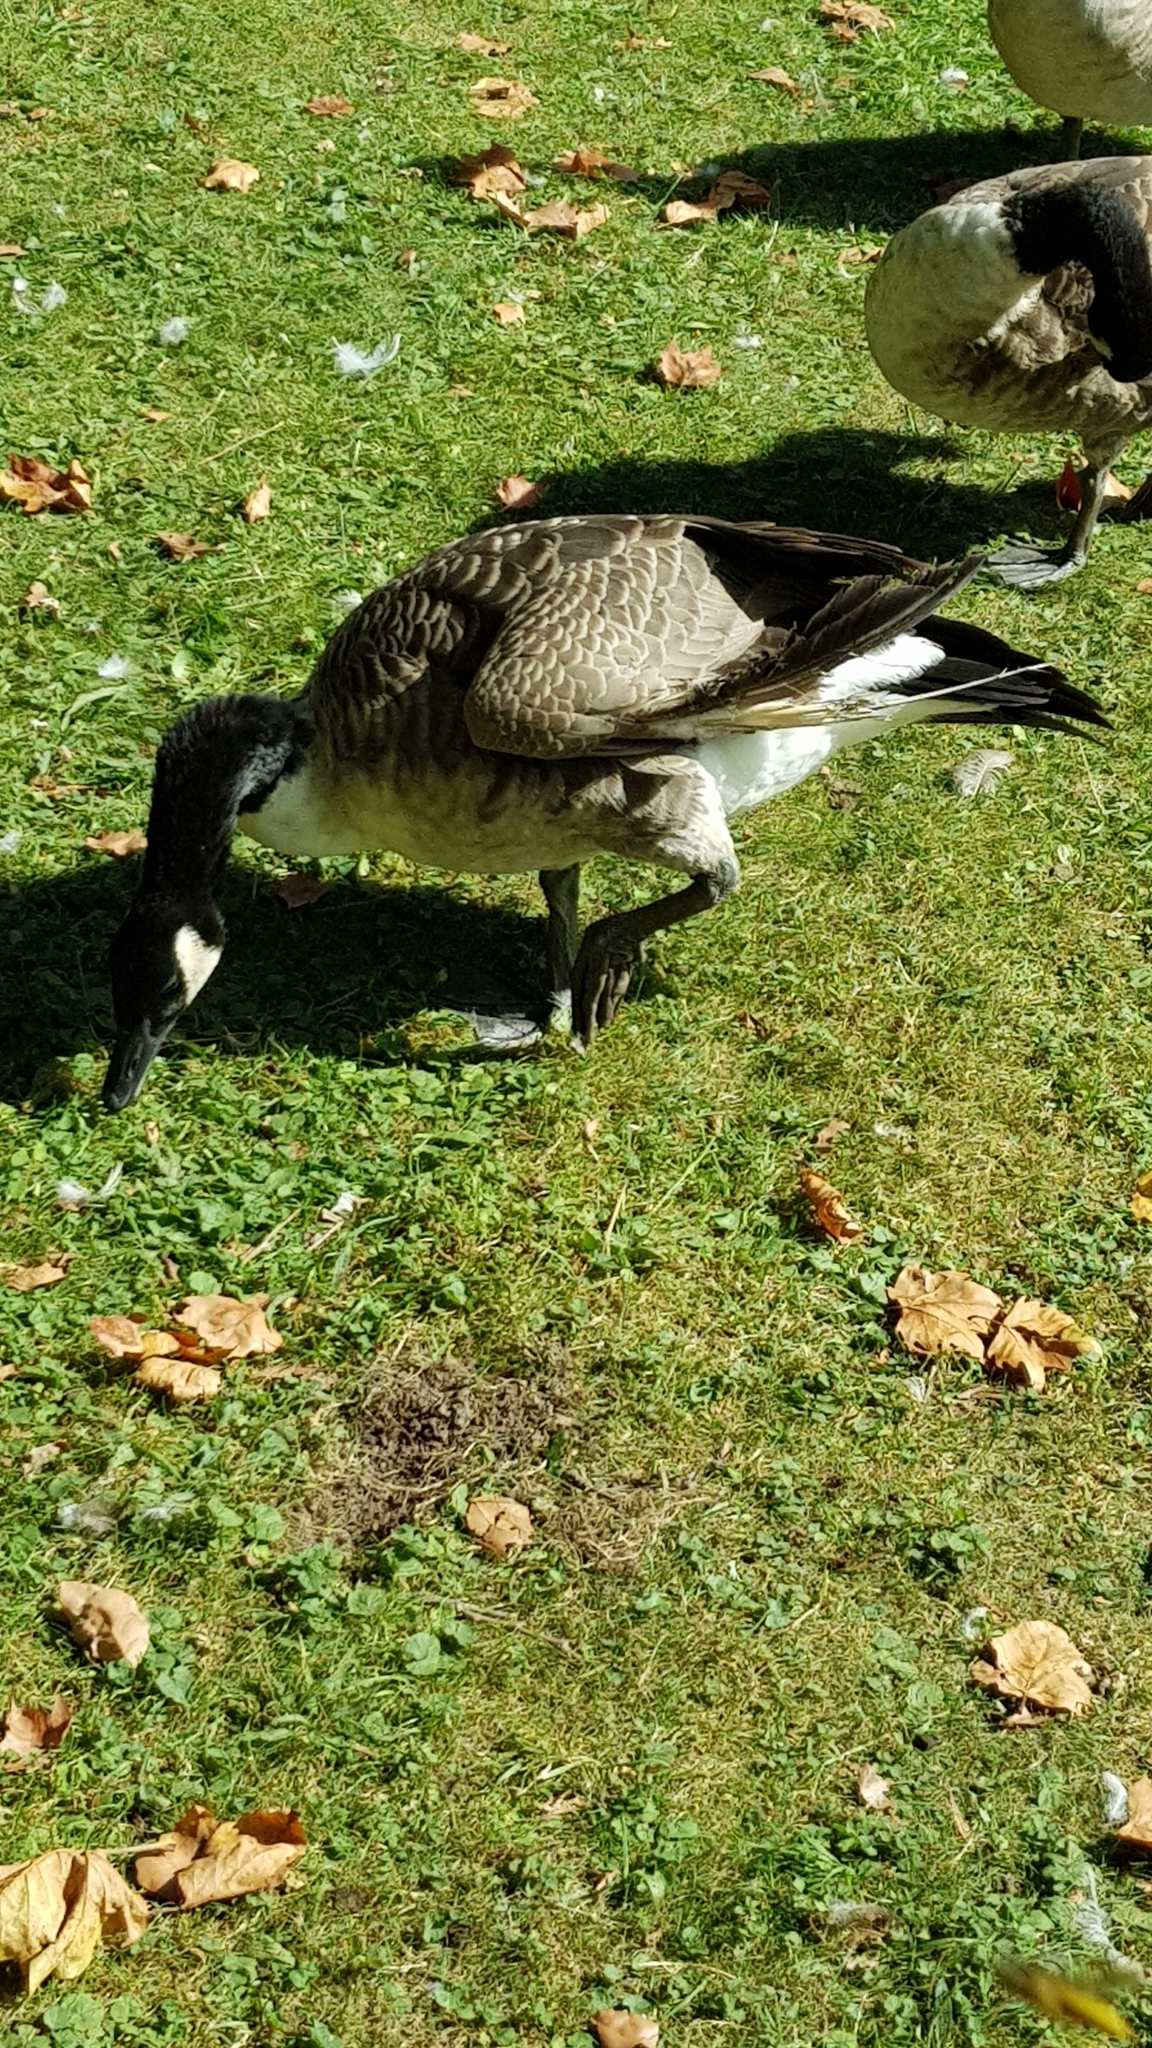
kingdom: Animalia
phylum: Chordata
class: Aves
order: Anseriformes
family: Anatidae
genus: Branta
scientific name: Branta canadensis
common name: Canada goose
